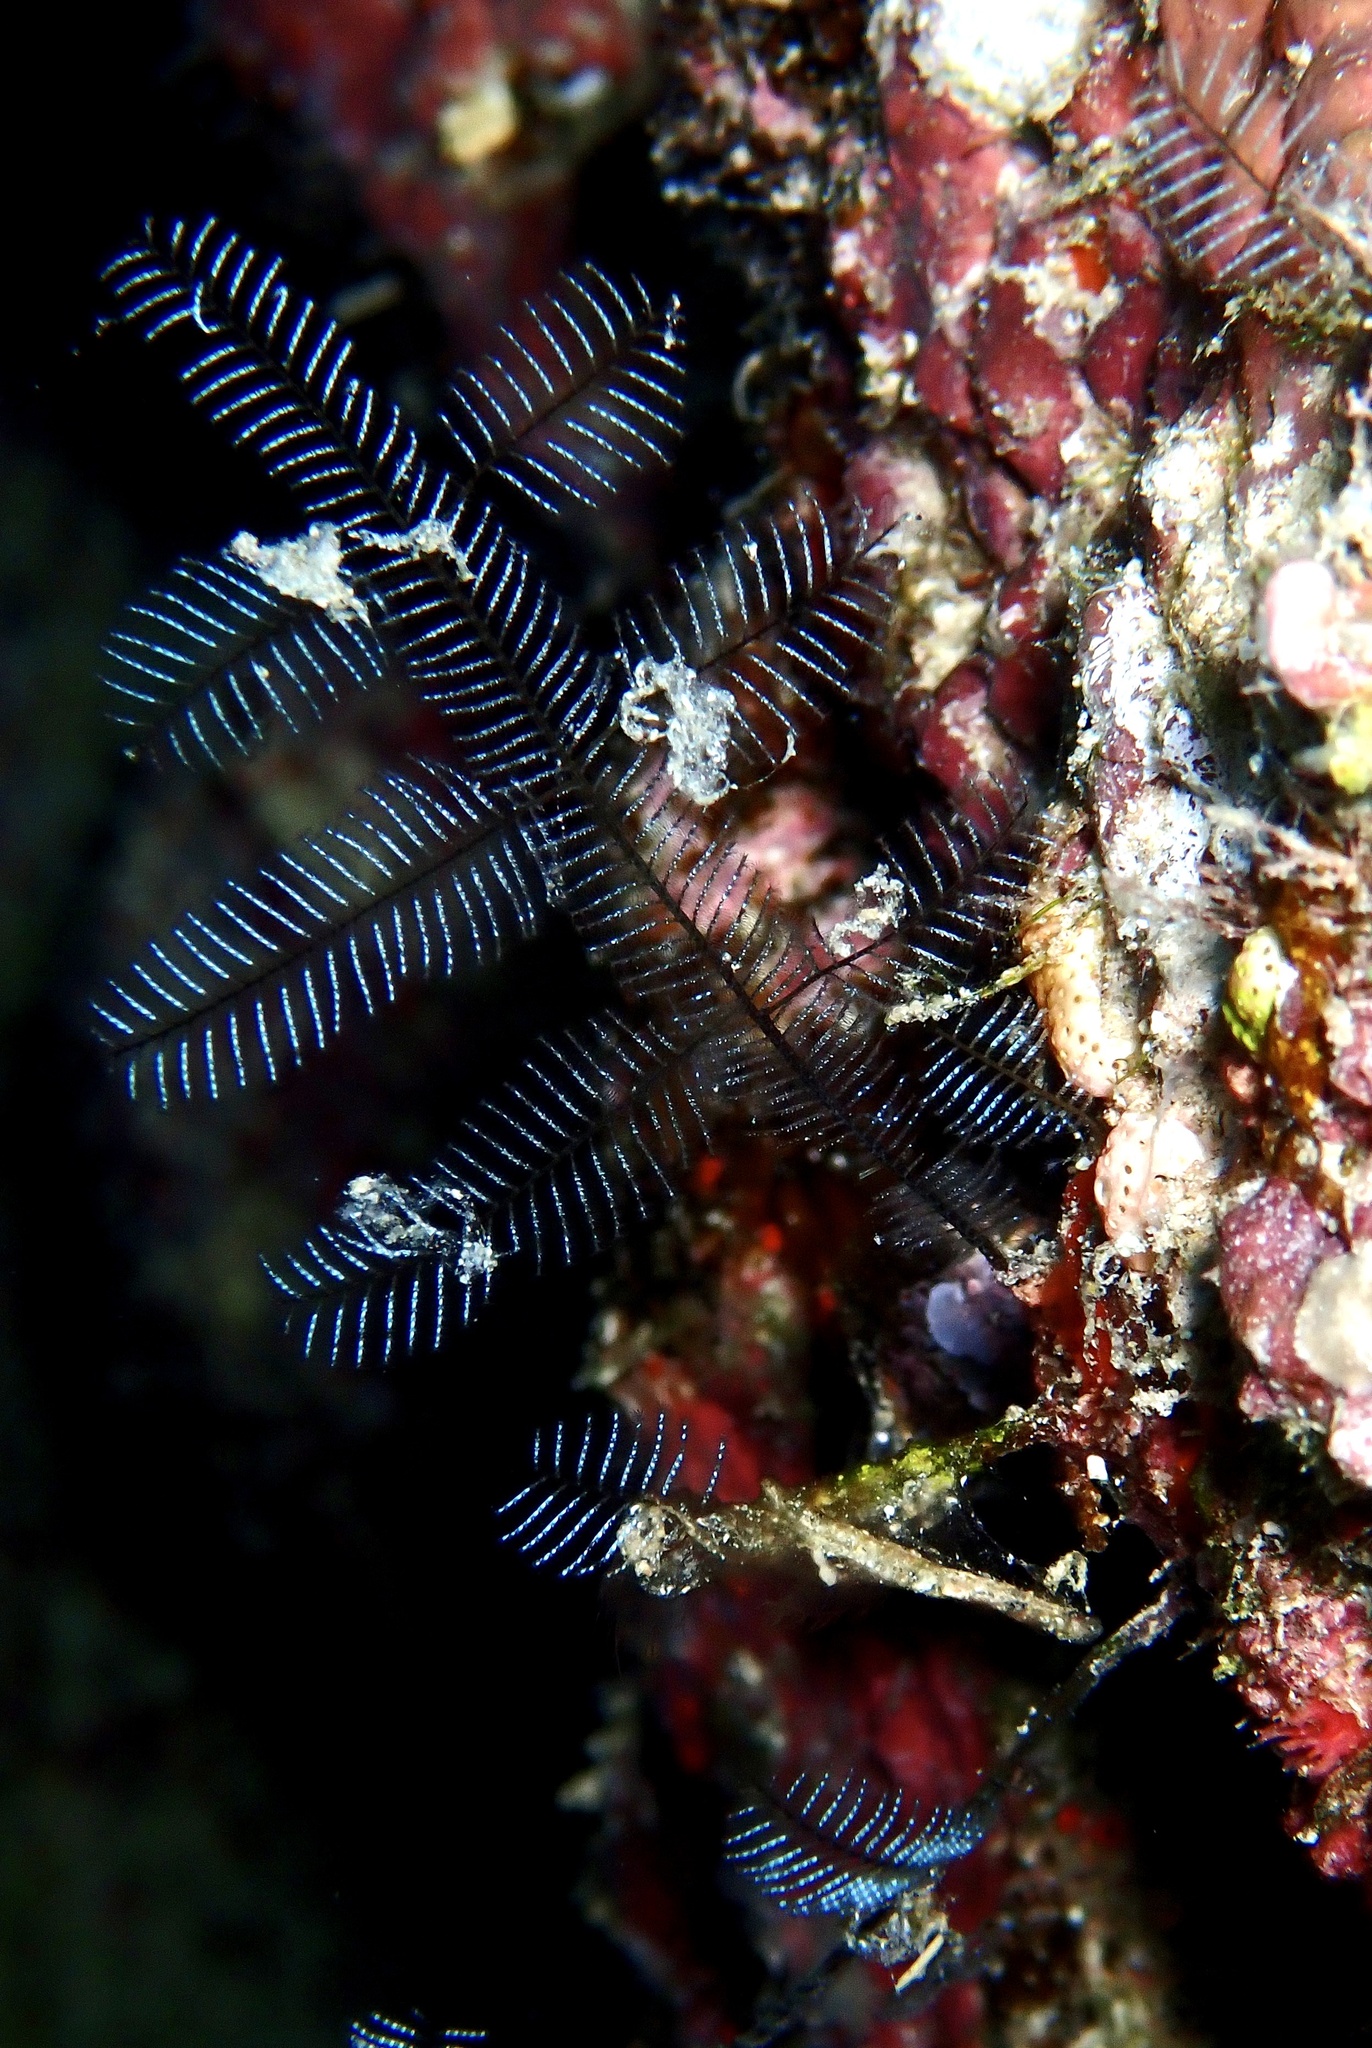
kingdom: Animalia
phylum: Cnidaria
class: Hydrozoa
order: Leptothecata
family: Aglaopheniidae
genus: Macrorhynchia
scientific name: Macrorhynchia philippina
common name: Stinging hydroid
